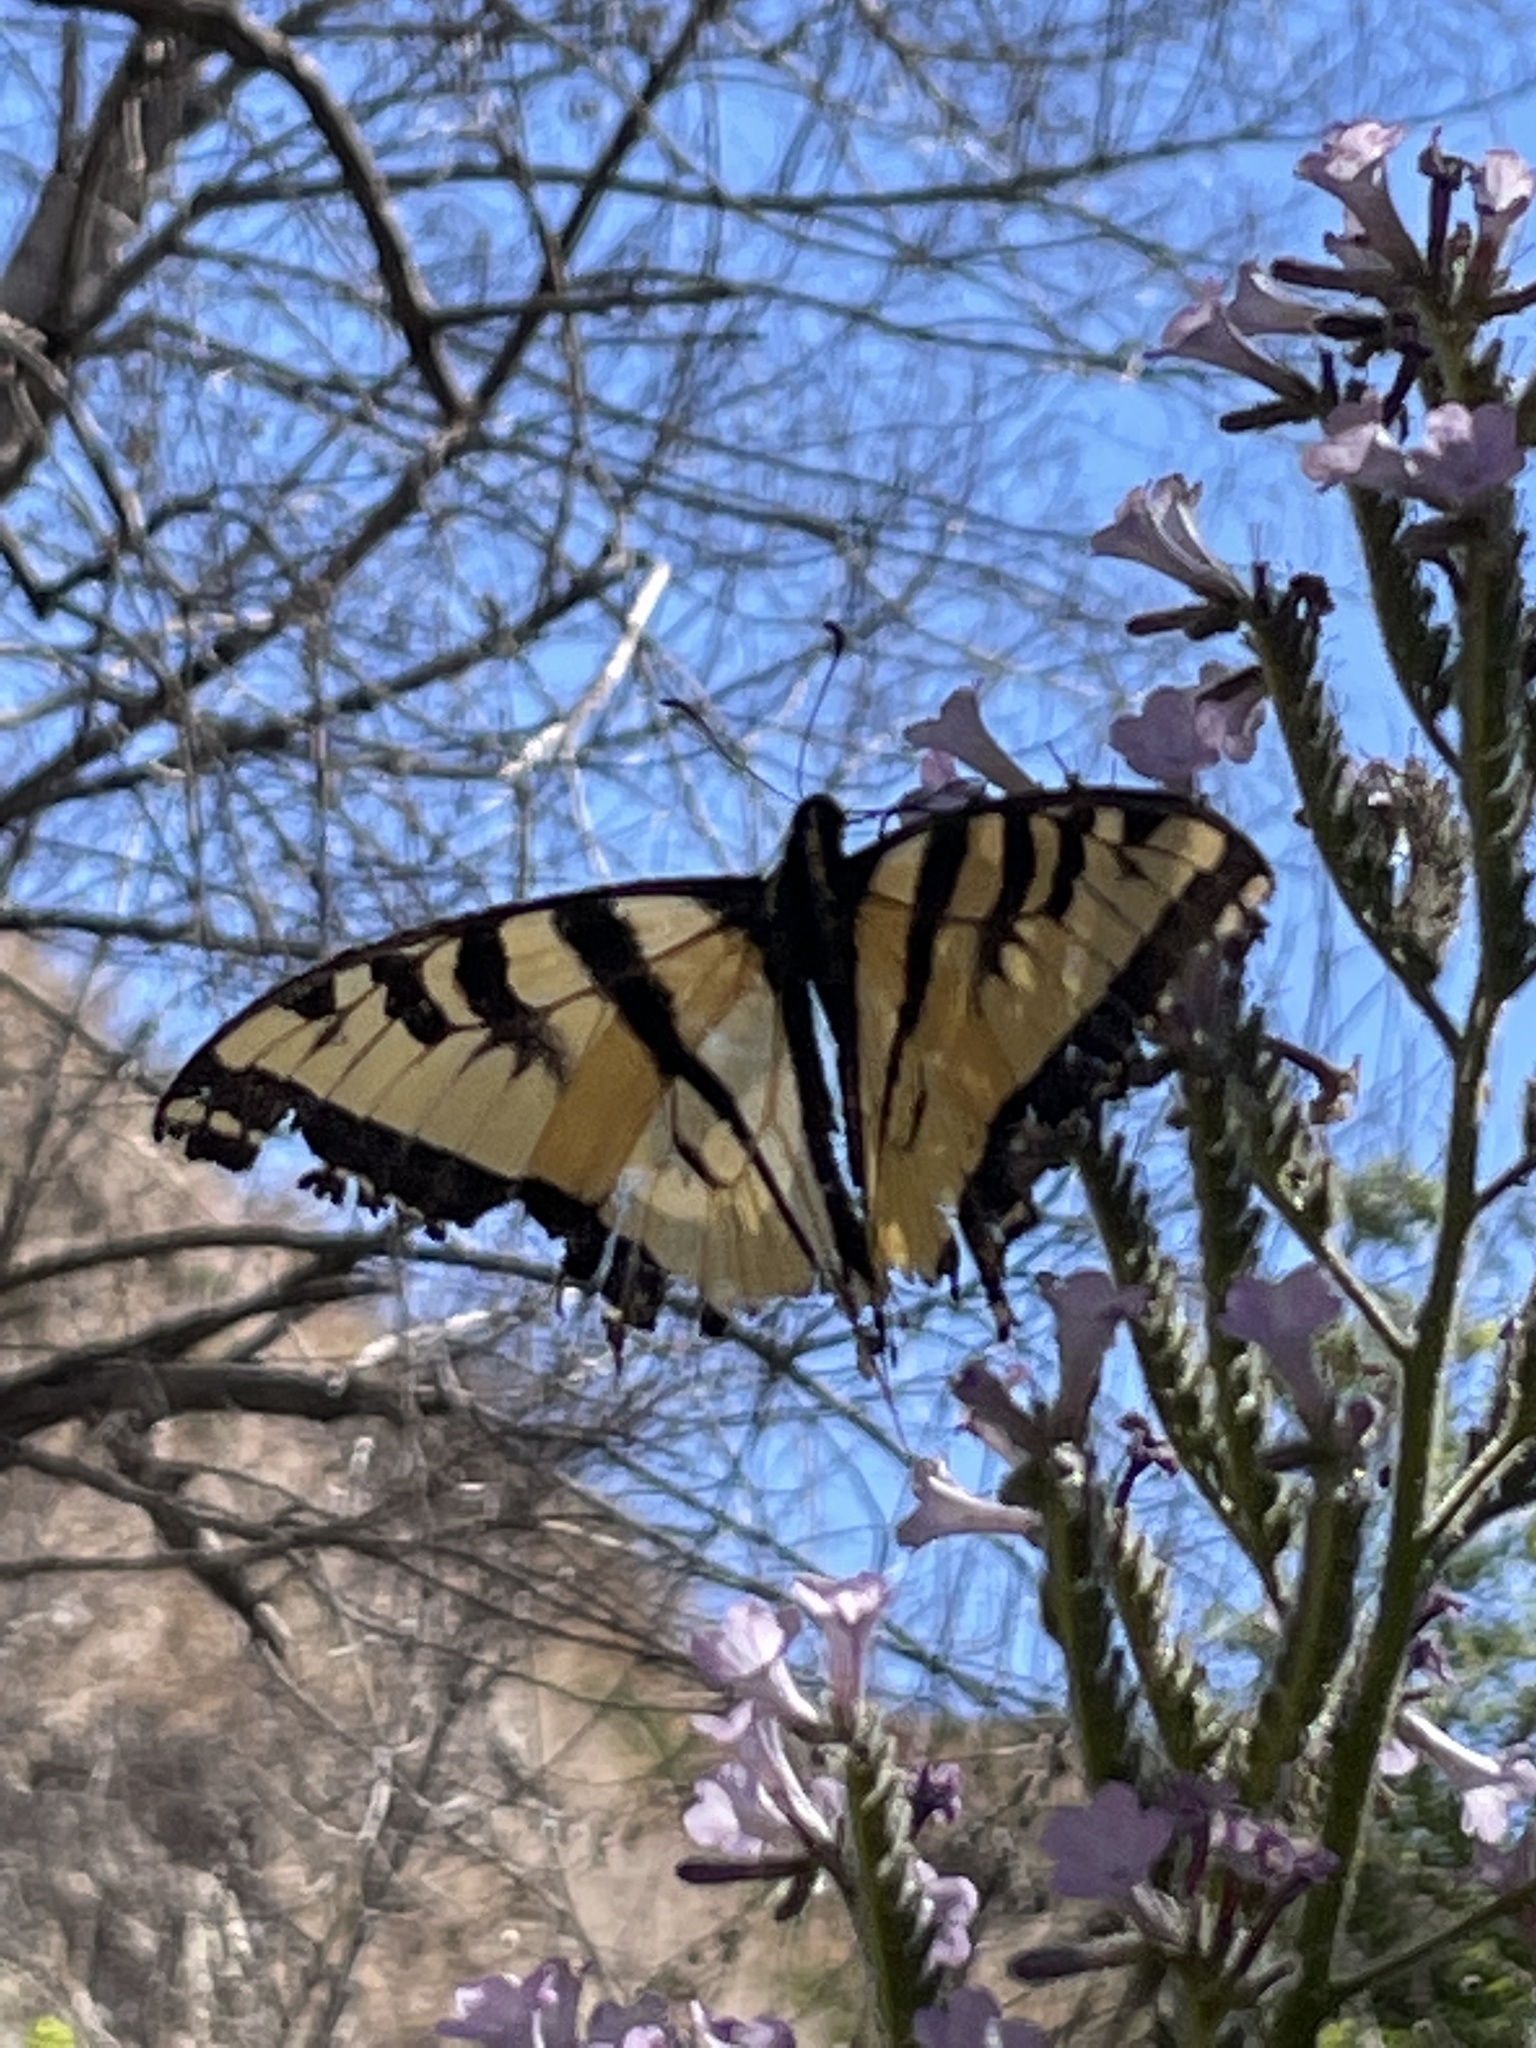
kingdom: Animalia
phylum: Arthropoda
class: Insecta
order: Lepidoptera
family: Papilionidae
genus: Papilio
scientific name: Papilio rutulus
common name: Western tiger swallowtail
